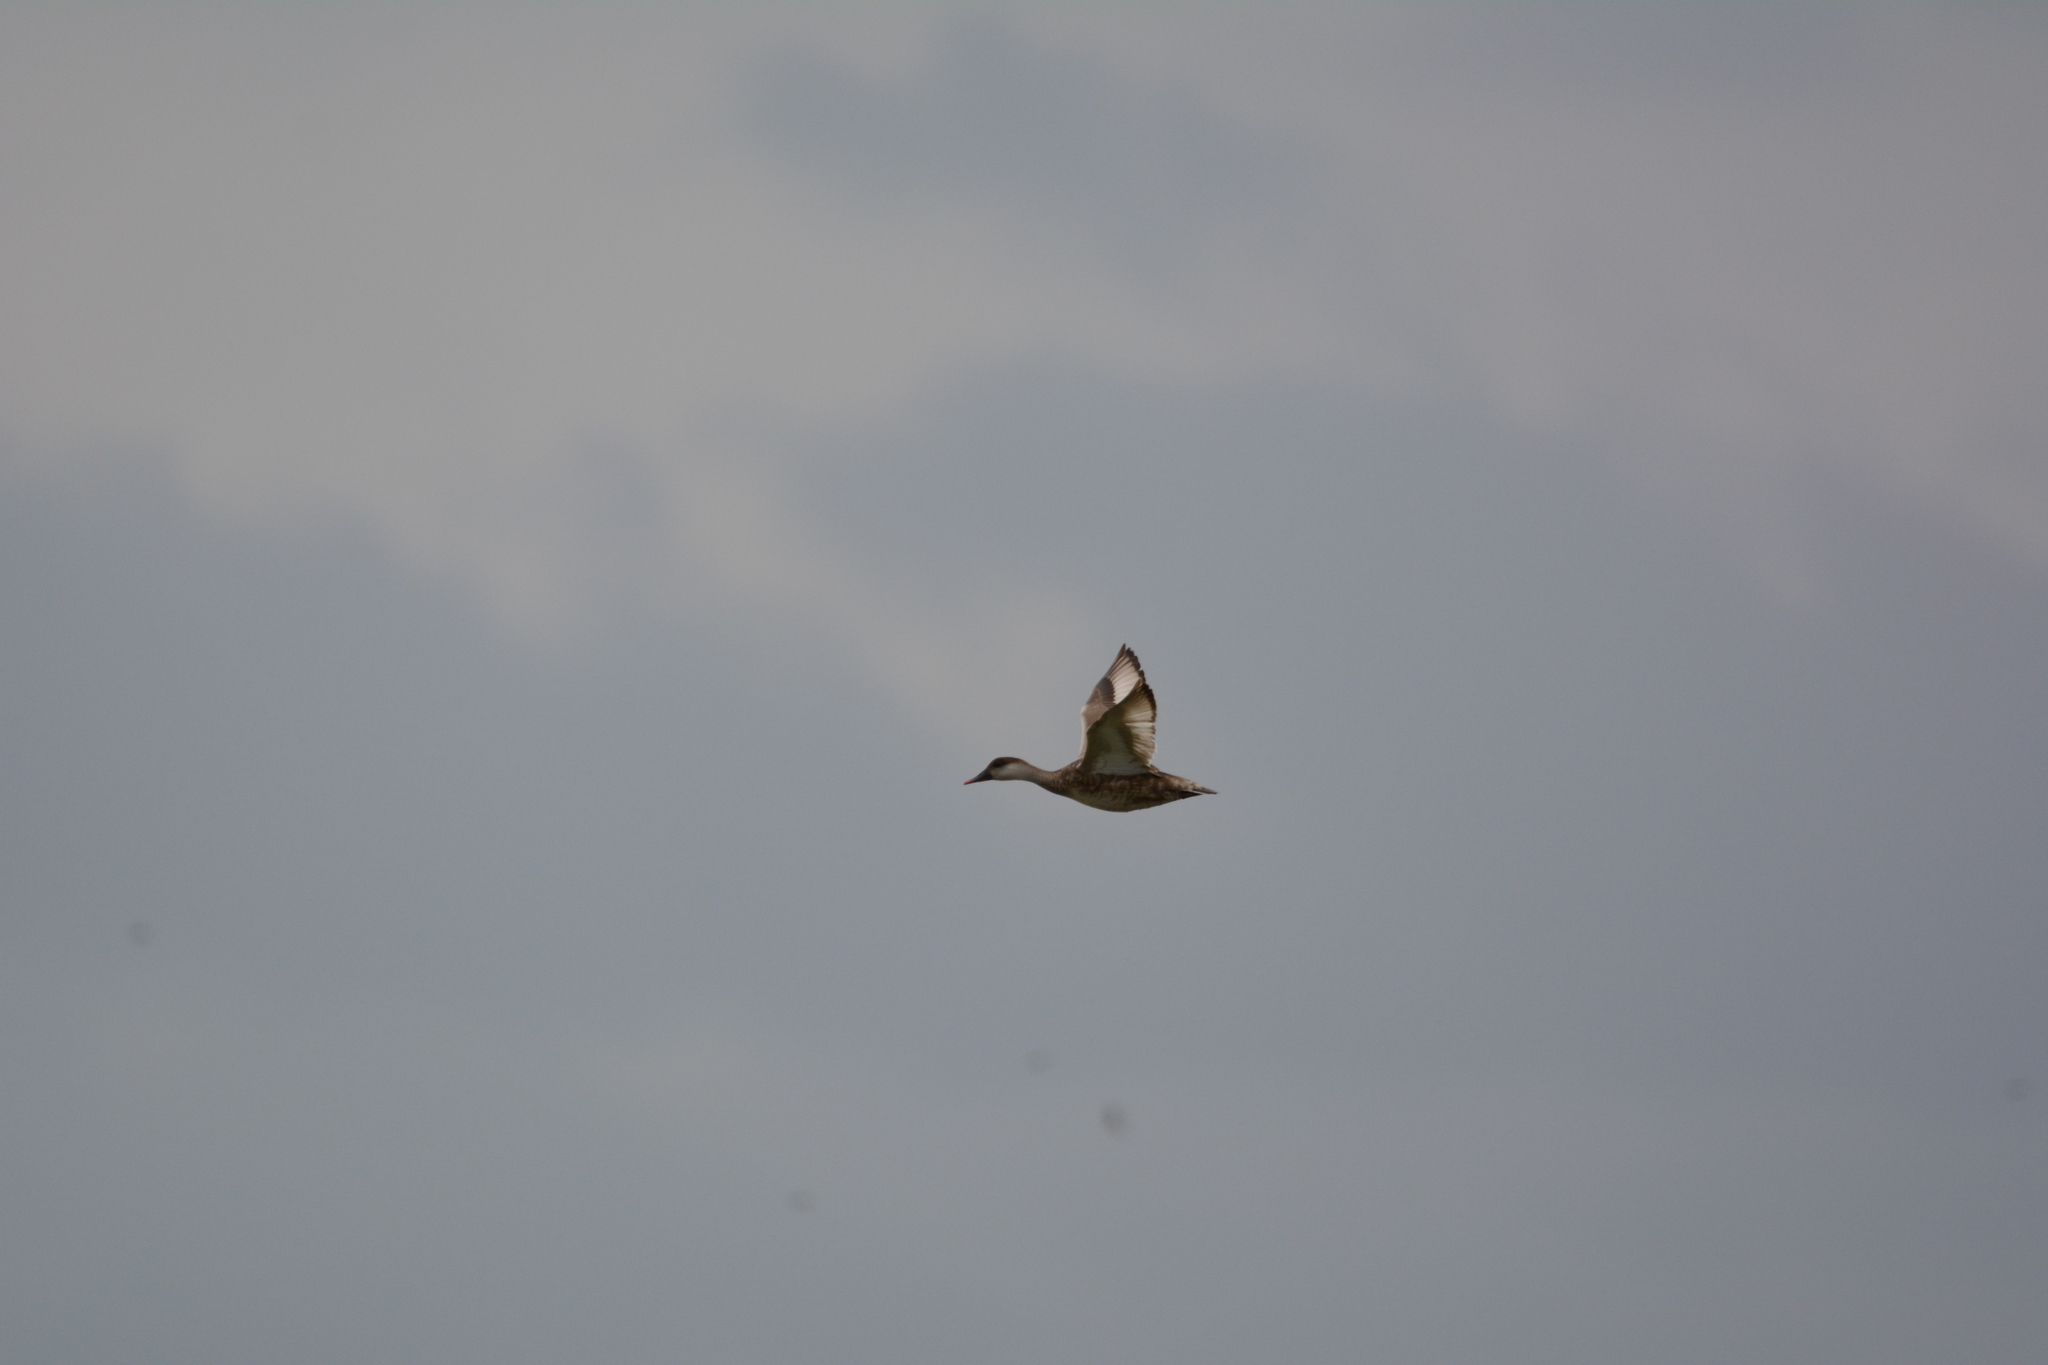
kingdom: Animalia
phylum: Chordata
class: Aves
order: Anseriformes
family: Anatidae
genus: Netta
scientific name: Netta rufina
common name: Red-crested pochard
